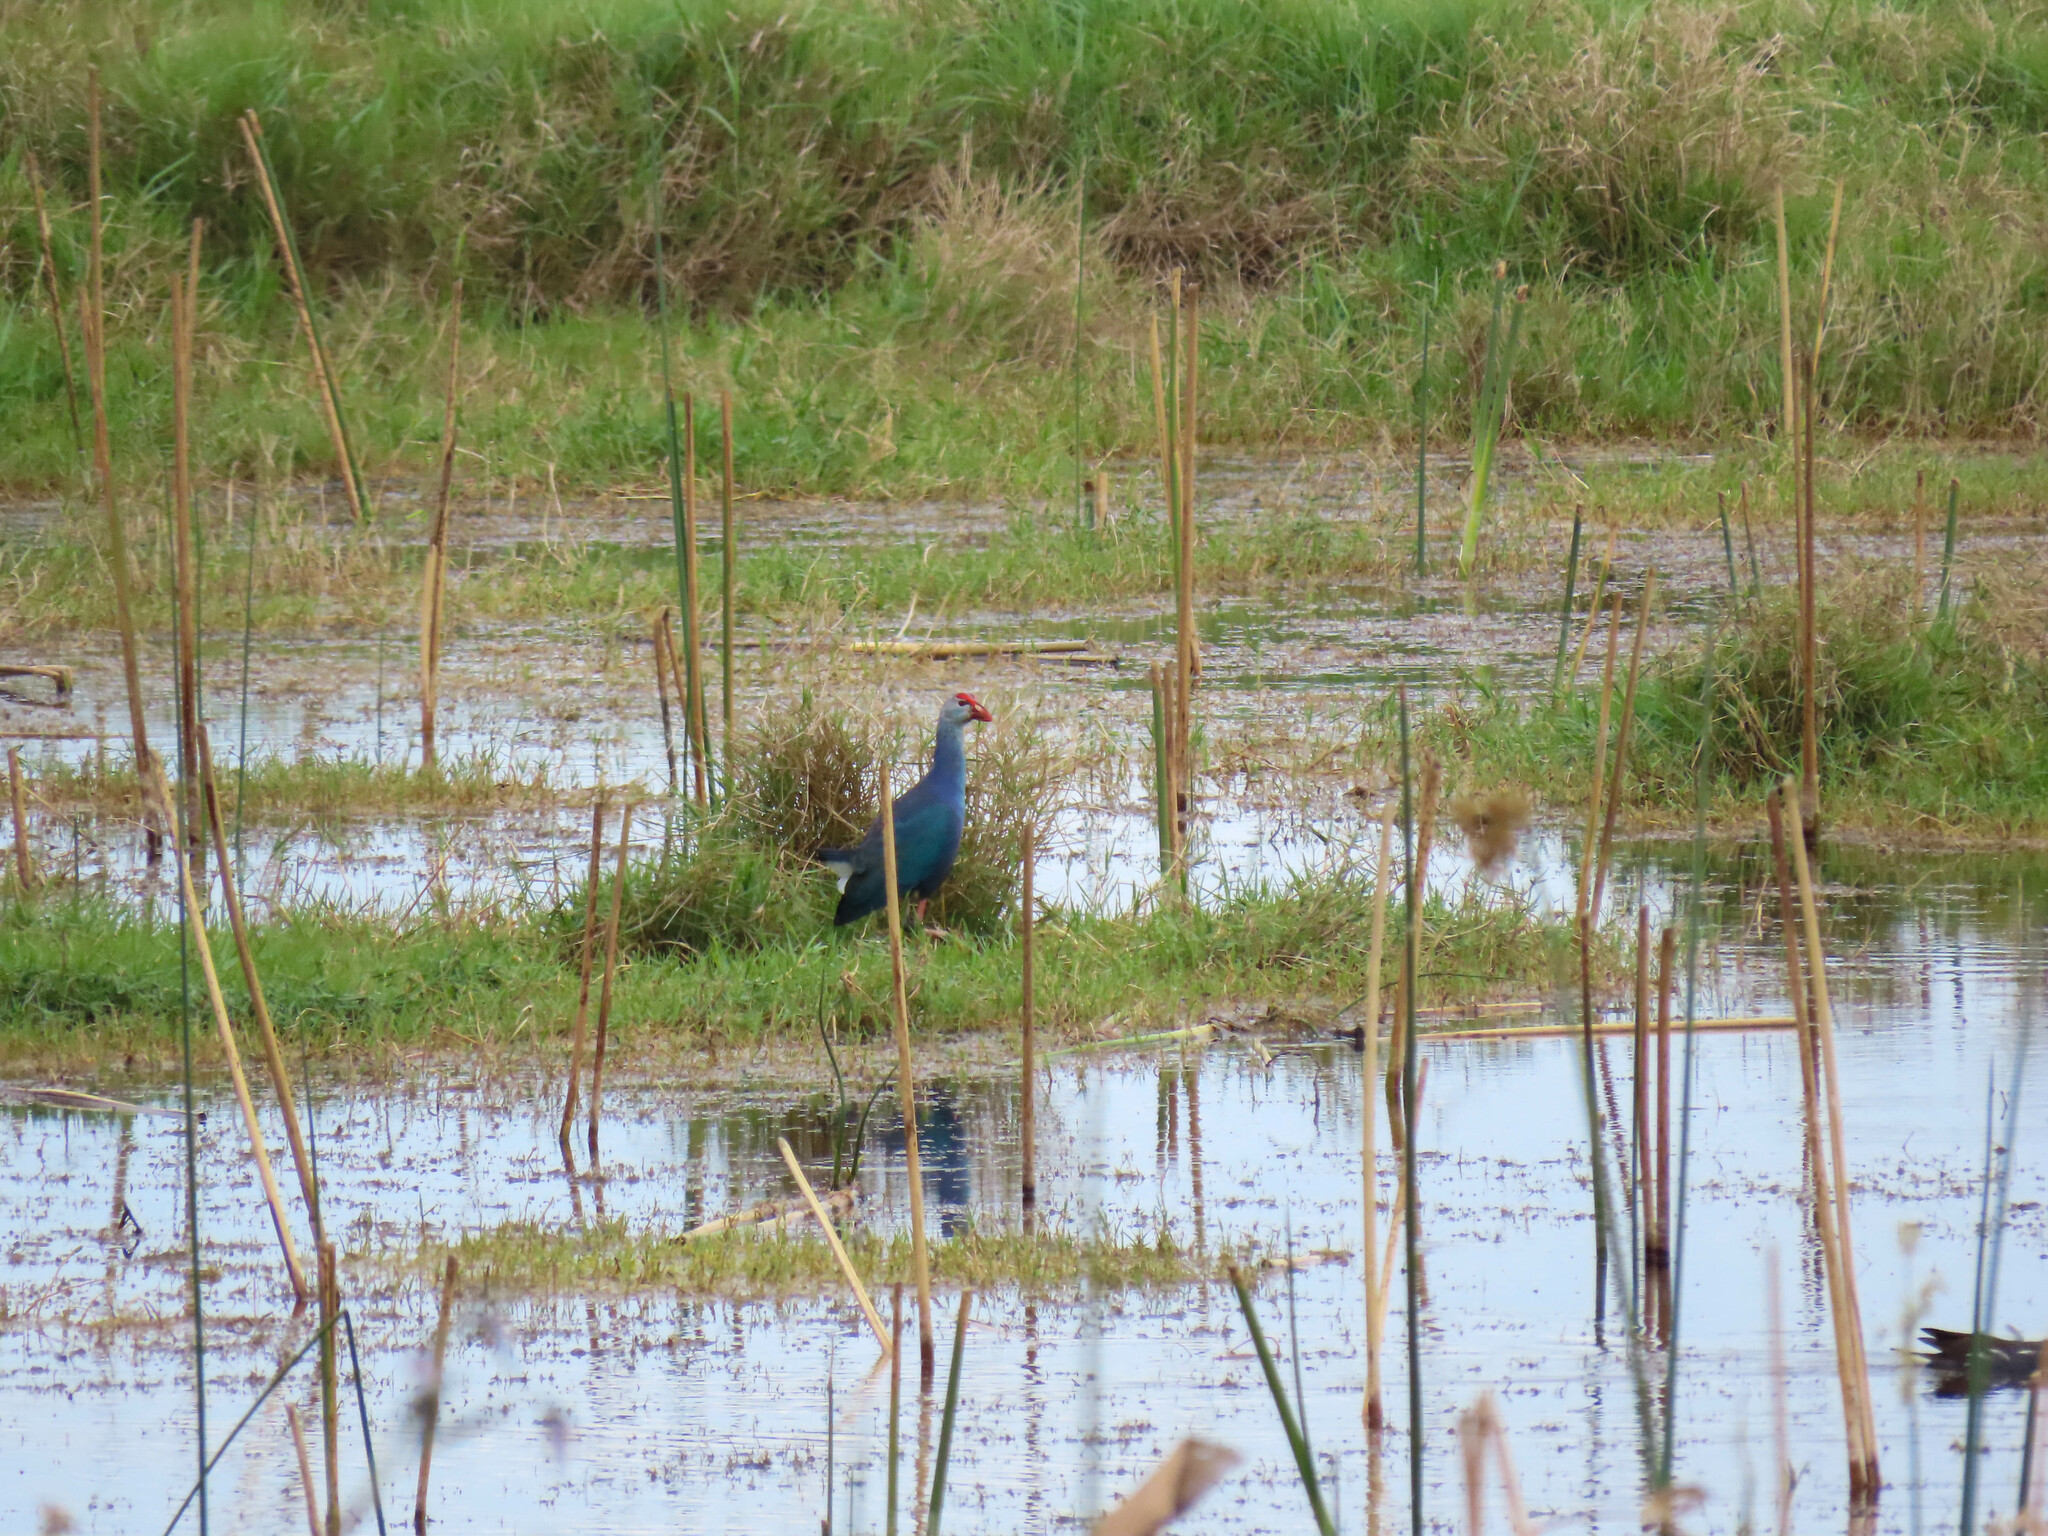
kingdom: Animalia
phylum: Chordata
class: Aves
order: Gruiformes
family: Rallidae
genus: Porphyrio
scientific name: Porphyrio porphyrio
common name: Purple swamphen
